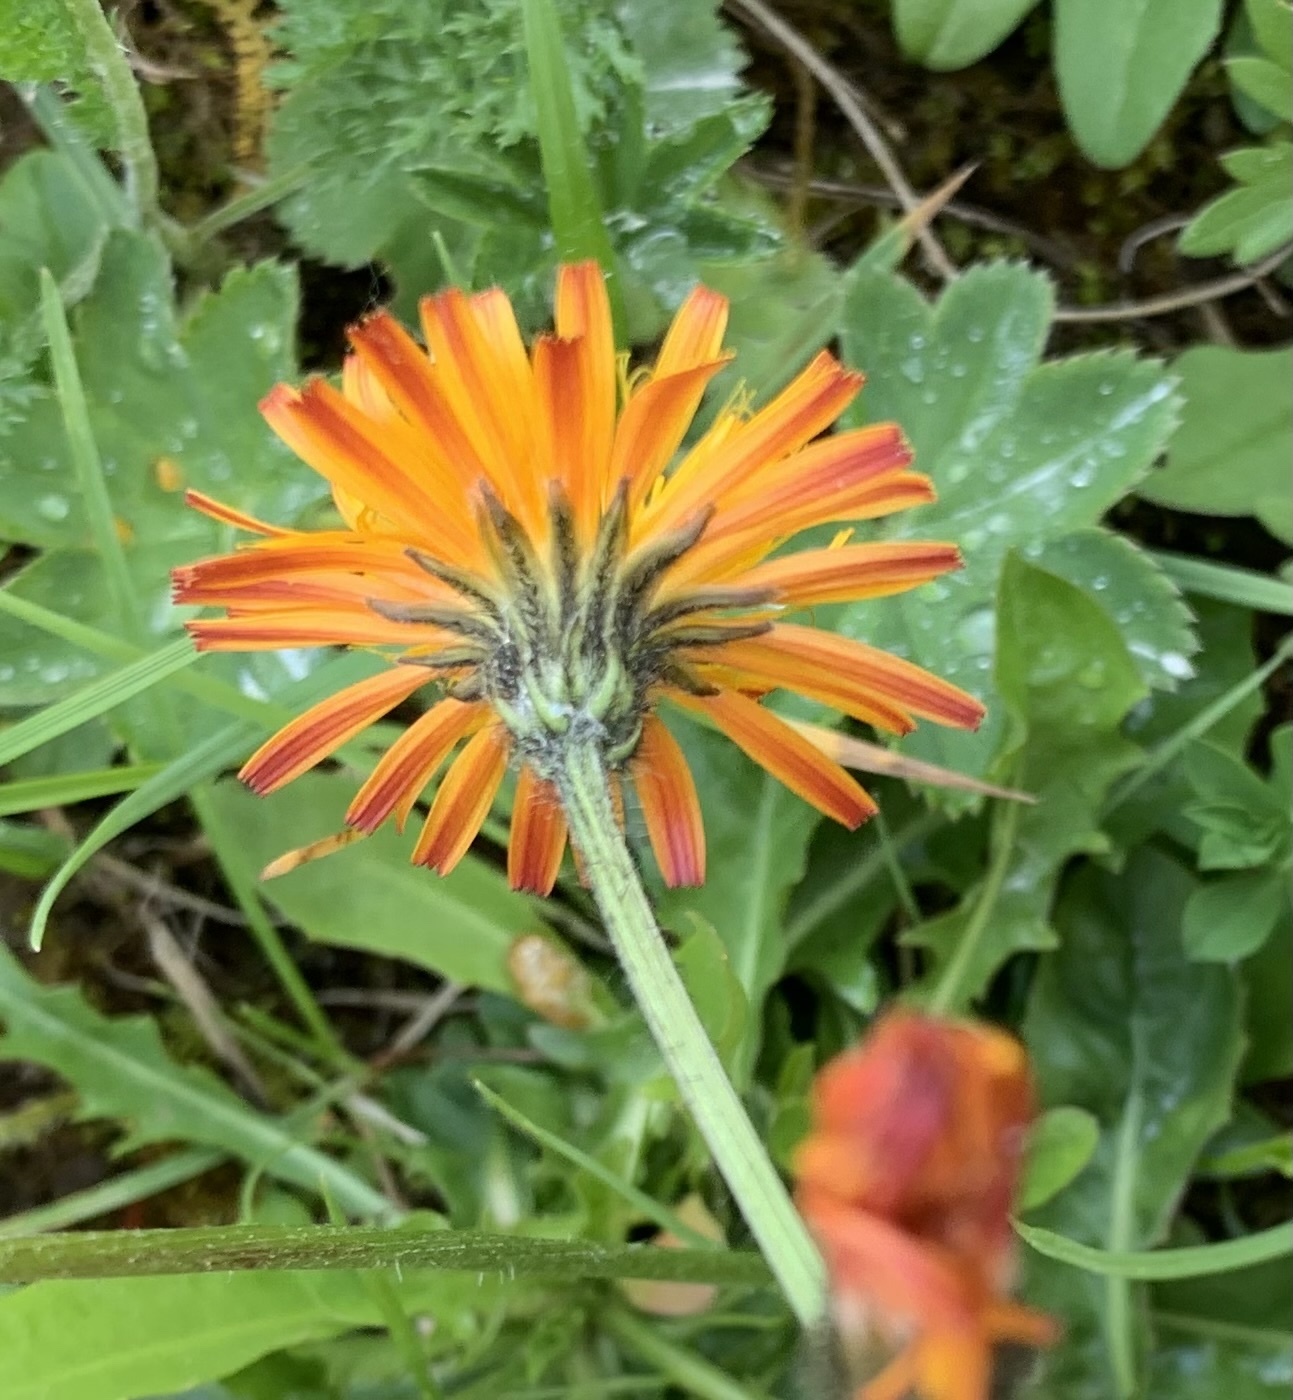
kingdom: Plantae
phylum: Tracheophyta
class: Magnoliopsida
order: Asterales
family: Asteraceae
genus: Crepis
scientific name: Crepis aurea
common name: Golden hawk's-beard
